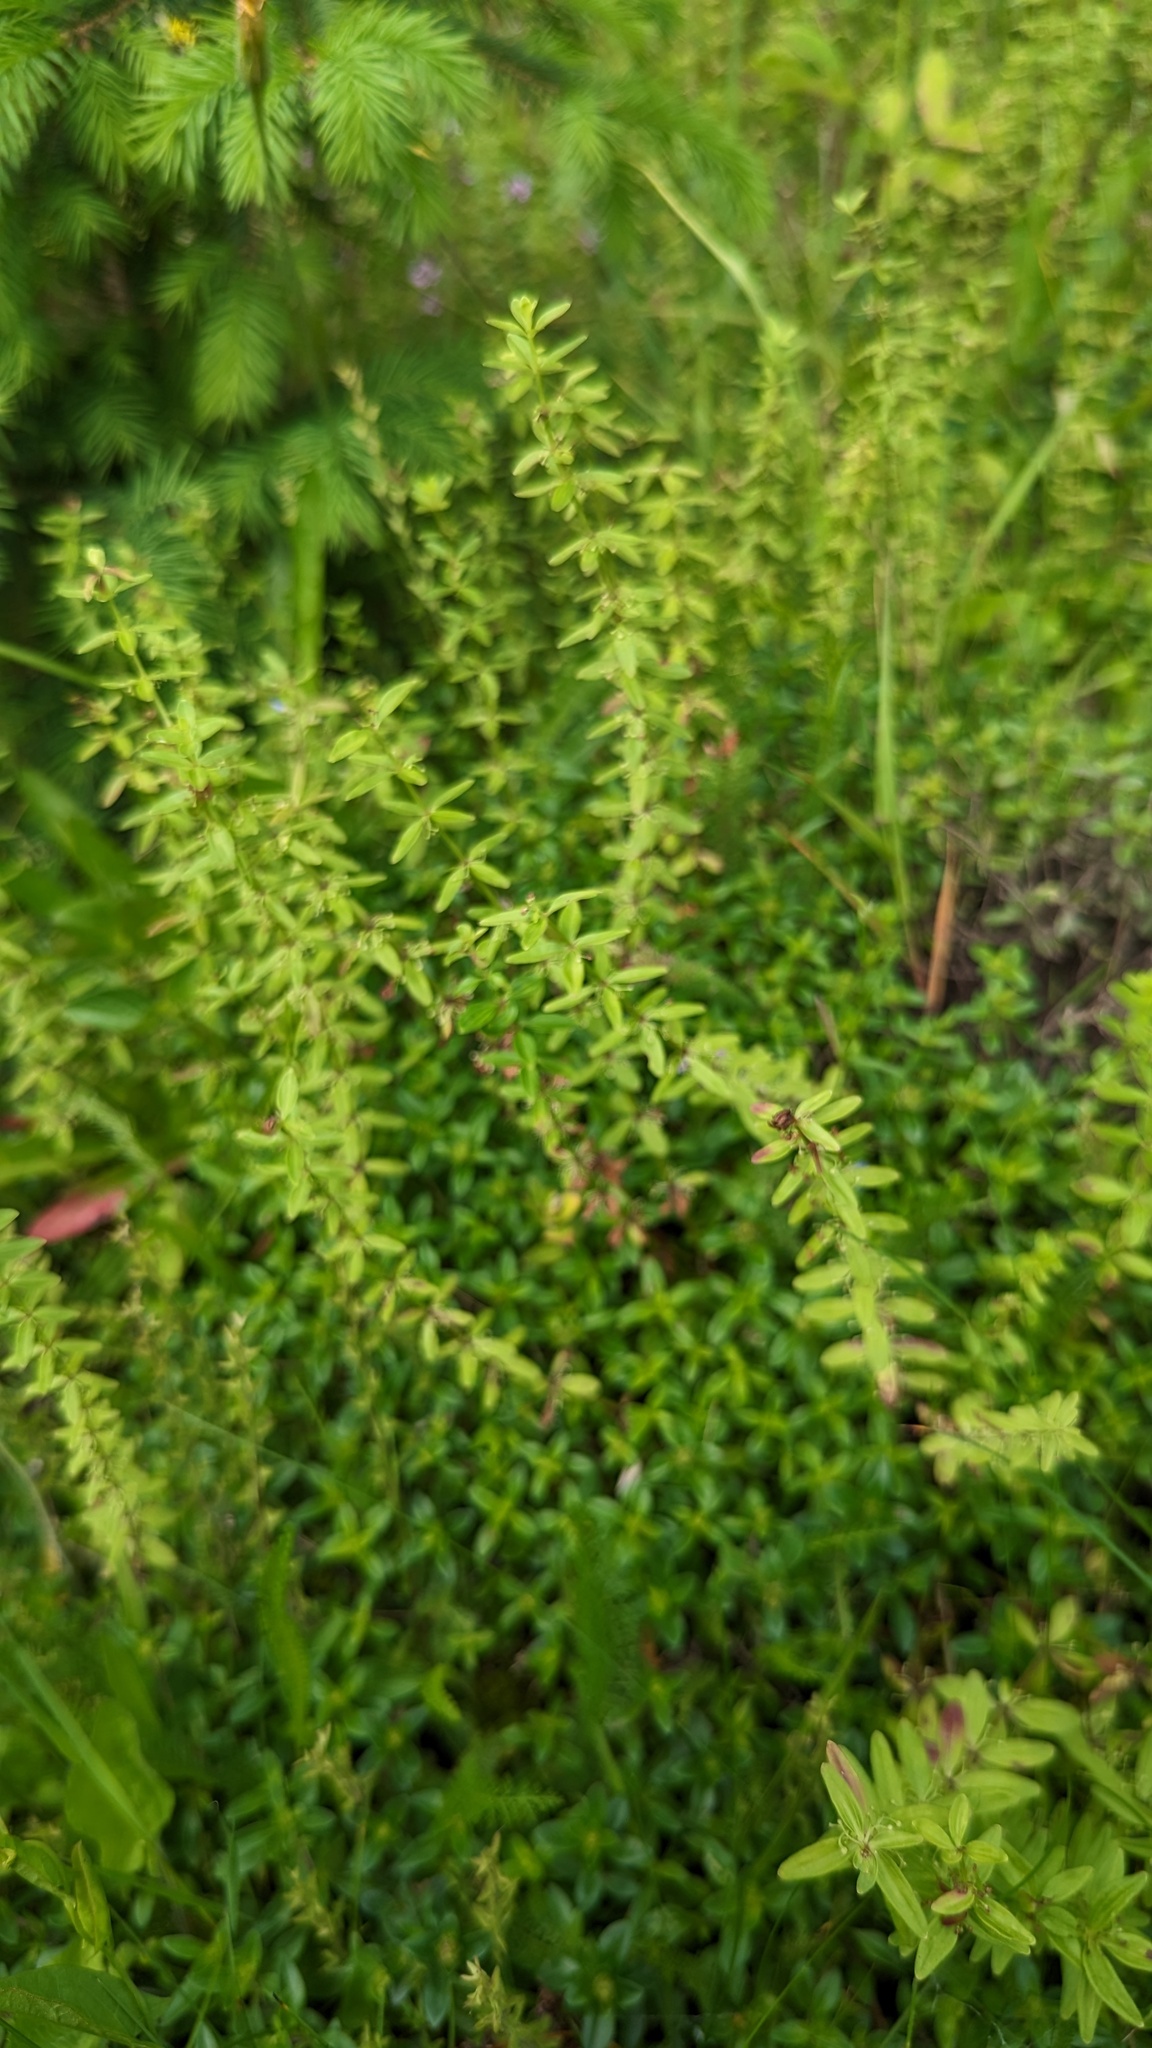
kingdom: Plantae
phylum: Tracheophyta
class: Magnoliopsida
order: Gentianales
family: Rubiaceae
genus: Cruciata
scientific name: Cruciata glabra
